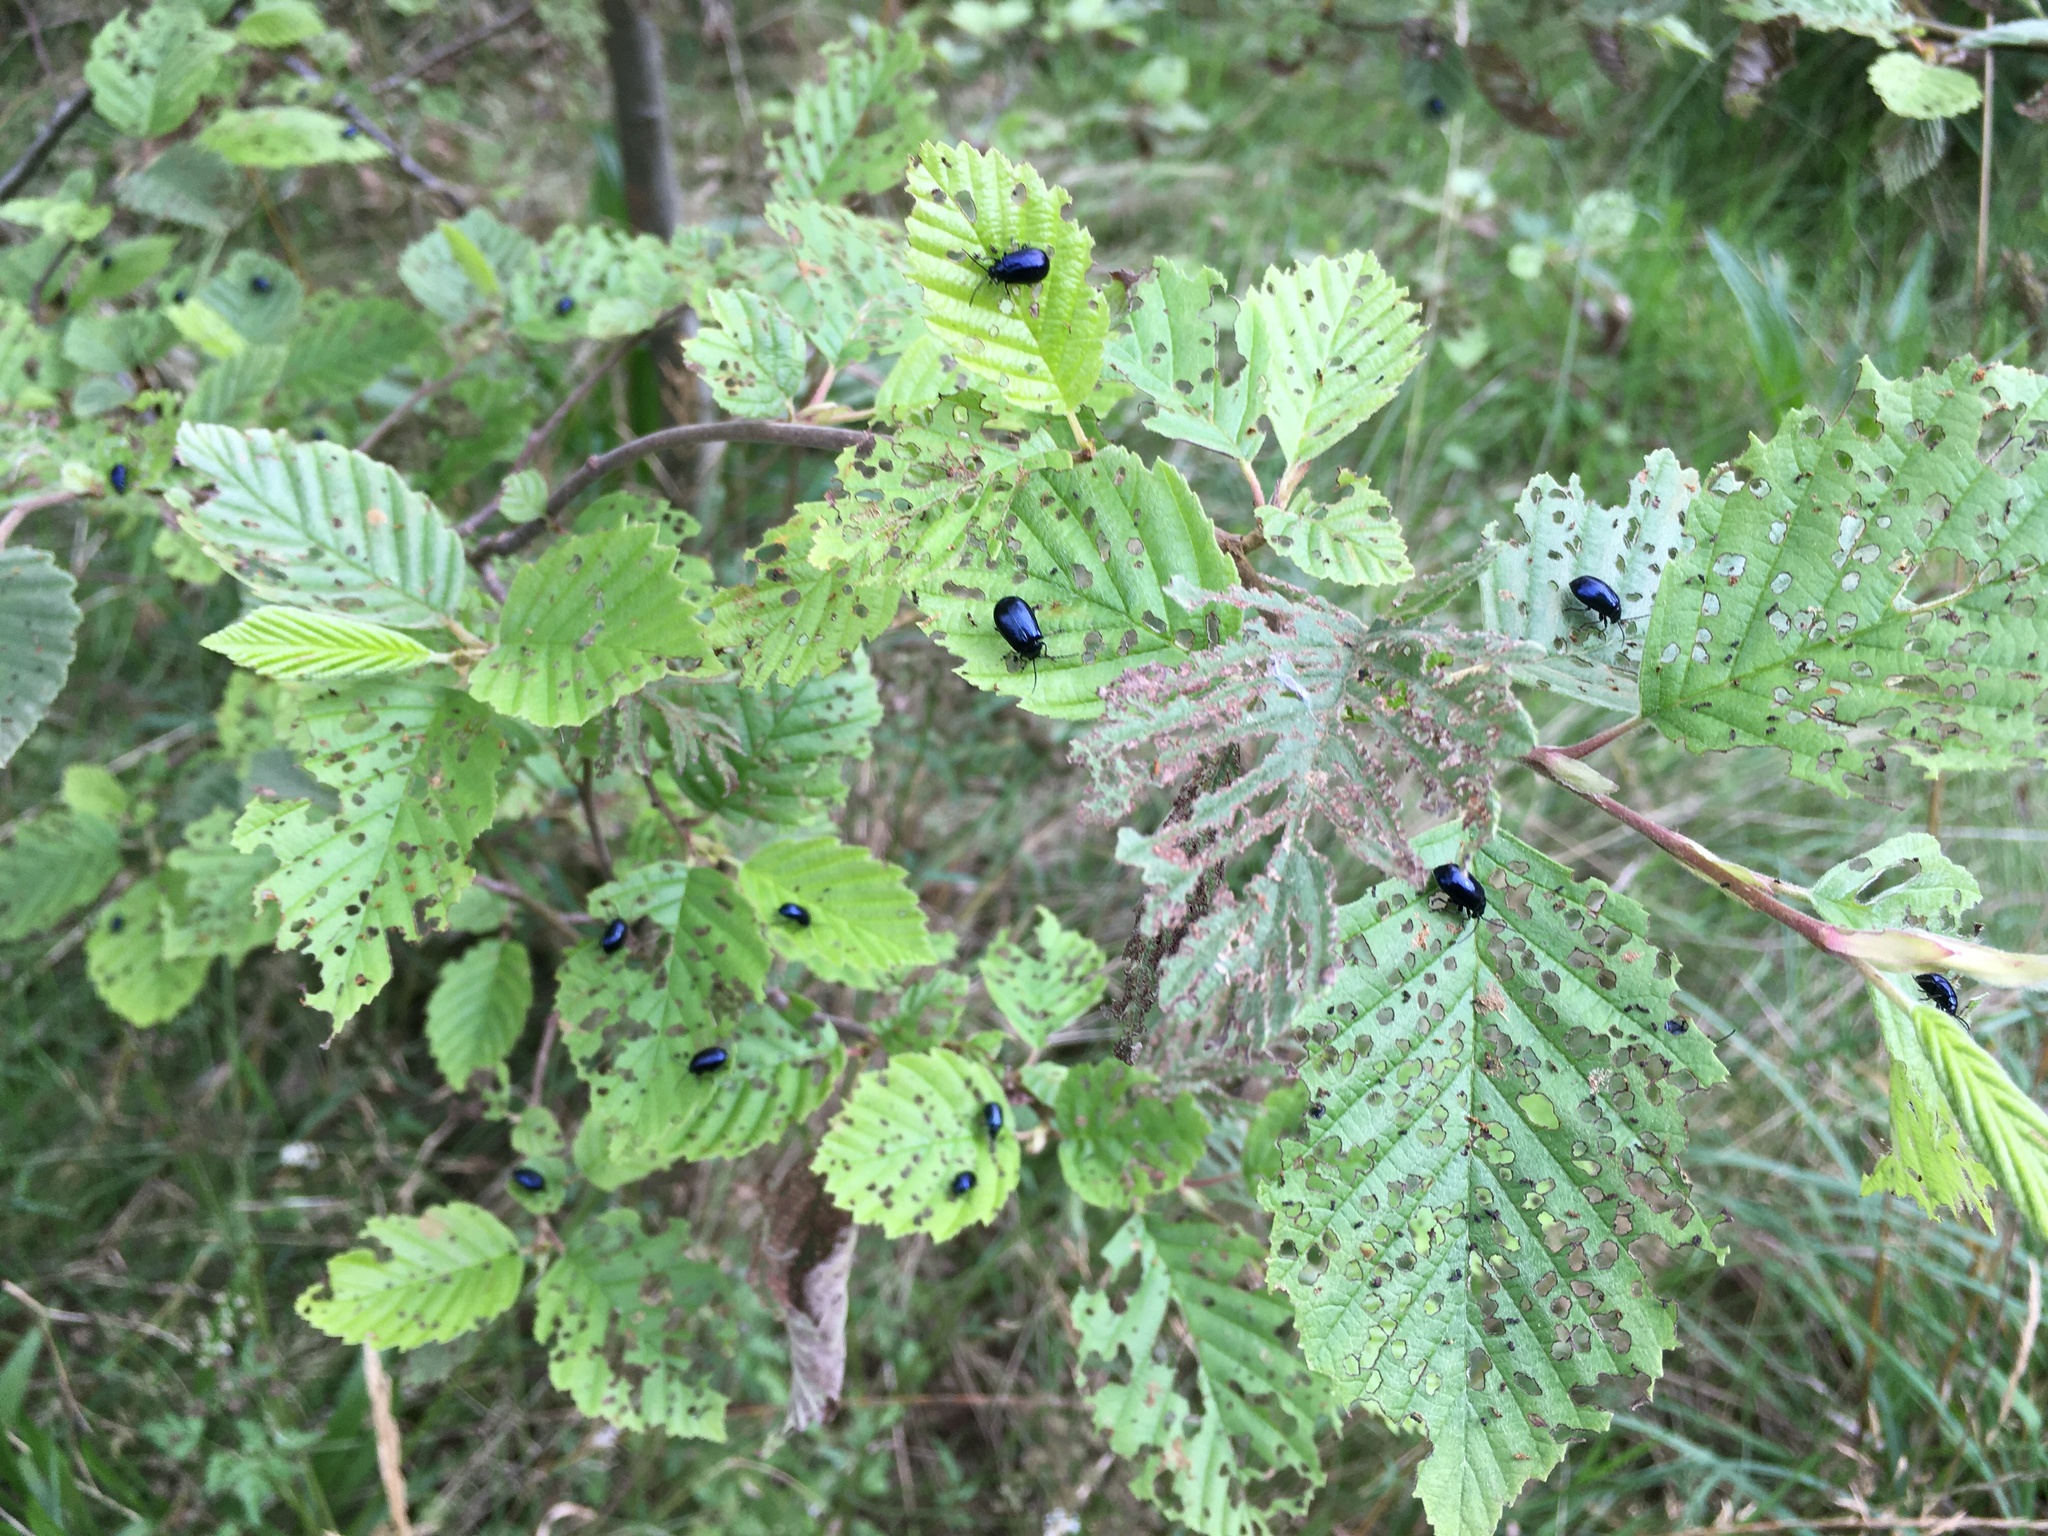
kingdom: Animalia
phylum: Arthropoda
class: Insecta
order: Coleoptera
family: Chrysomelidae
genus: Agelastica
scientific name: Agelastica alni
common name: Alder leaf beetle
